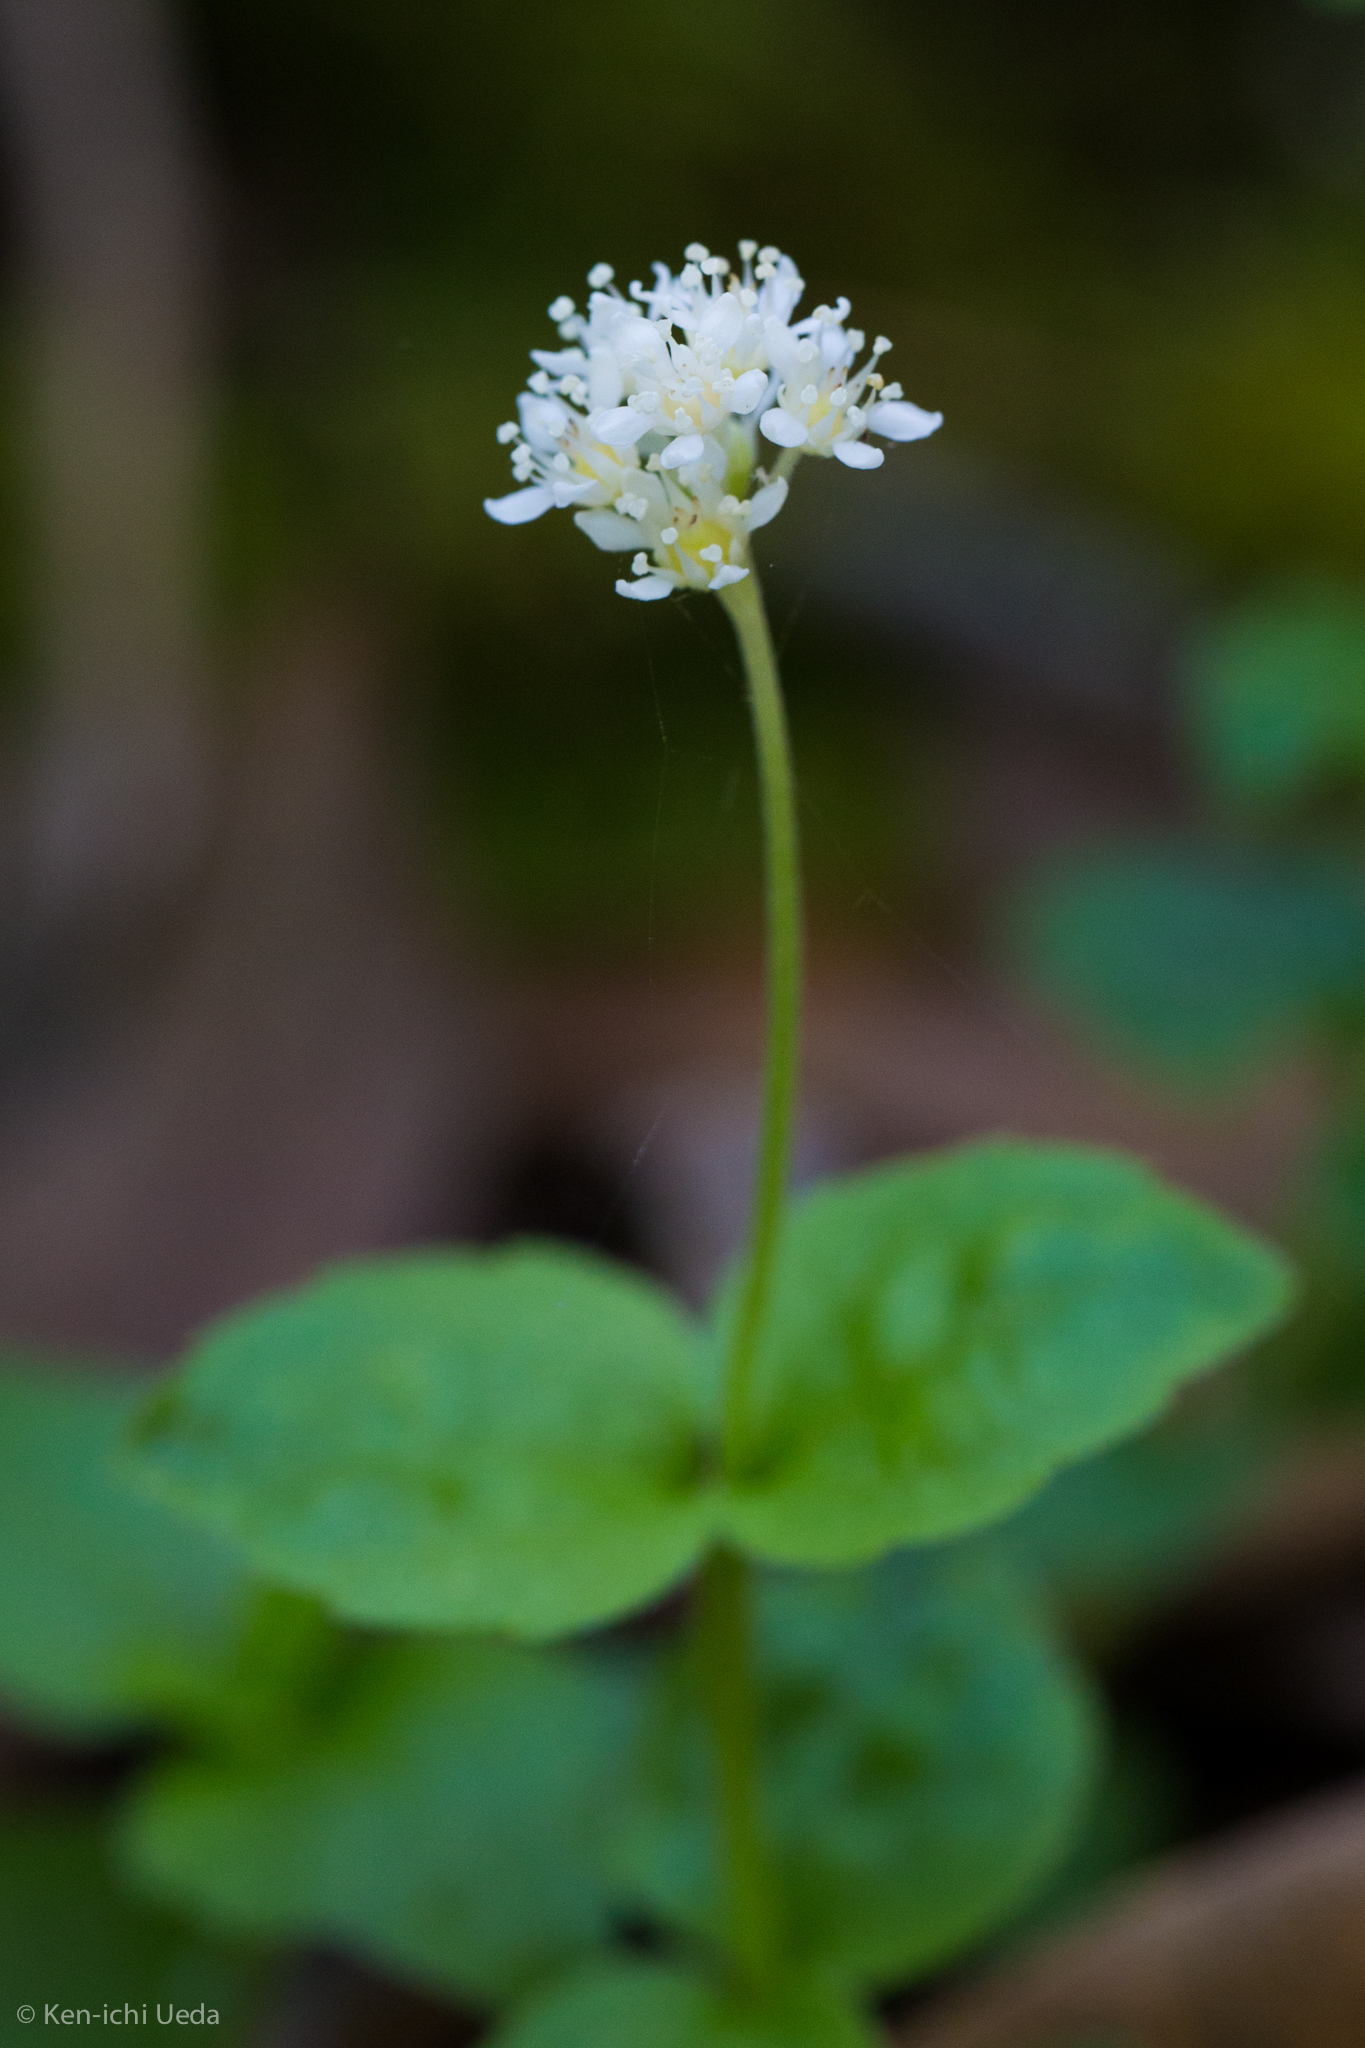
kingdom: Plantae
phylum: Tracheophyta
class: Magnoliopsida
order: Cornales
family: Hydrangeaceae
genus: Whipplea
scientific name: Whipplea modesta
